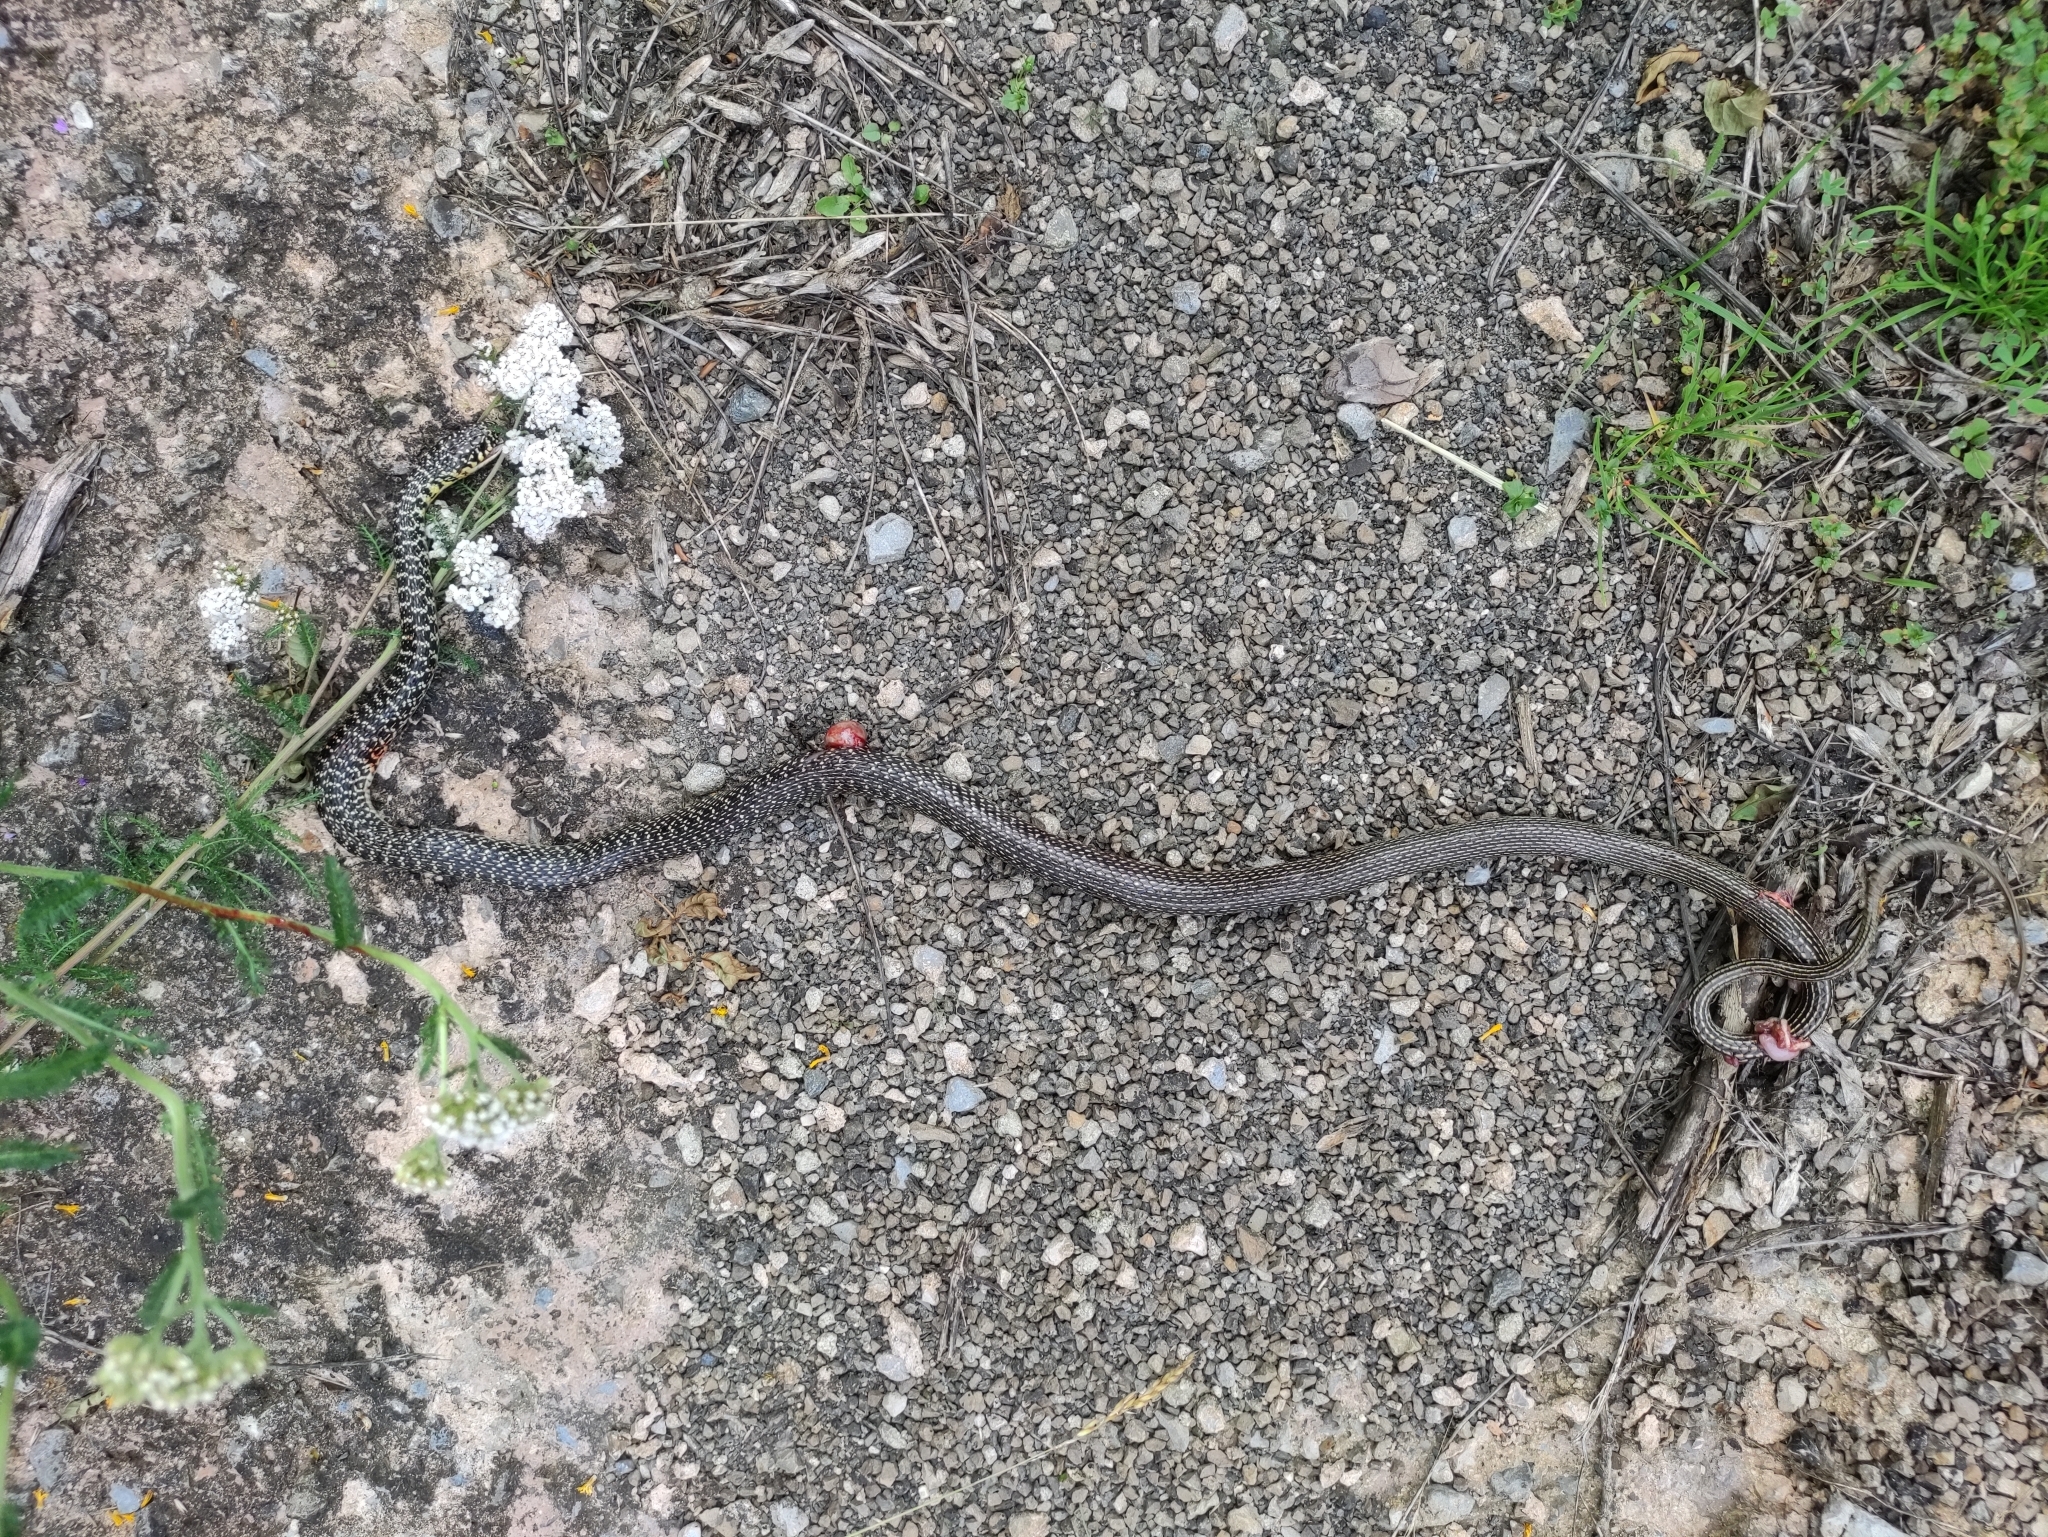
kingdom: Animalia
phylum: Chordata
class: Squamata
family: Colubridae
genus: Hierophis
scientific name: Hierophis viridiflavus
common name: Green whip snake
